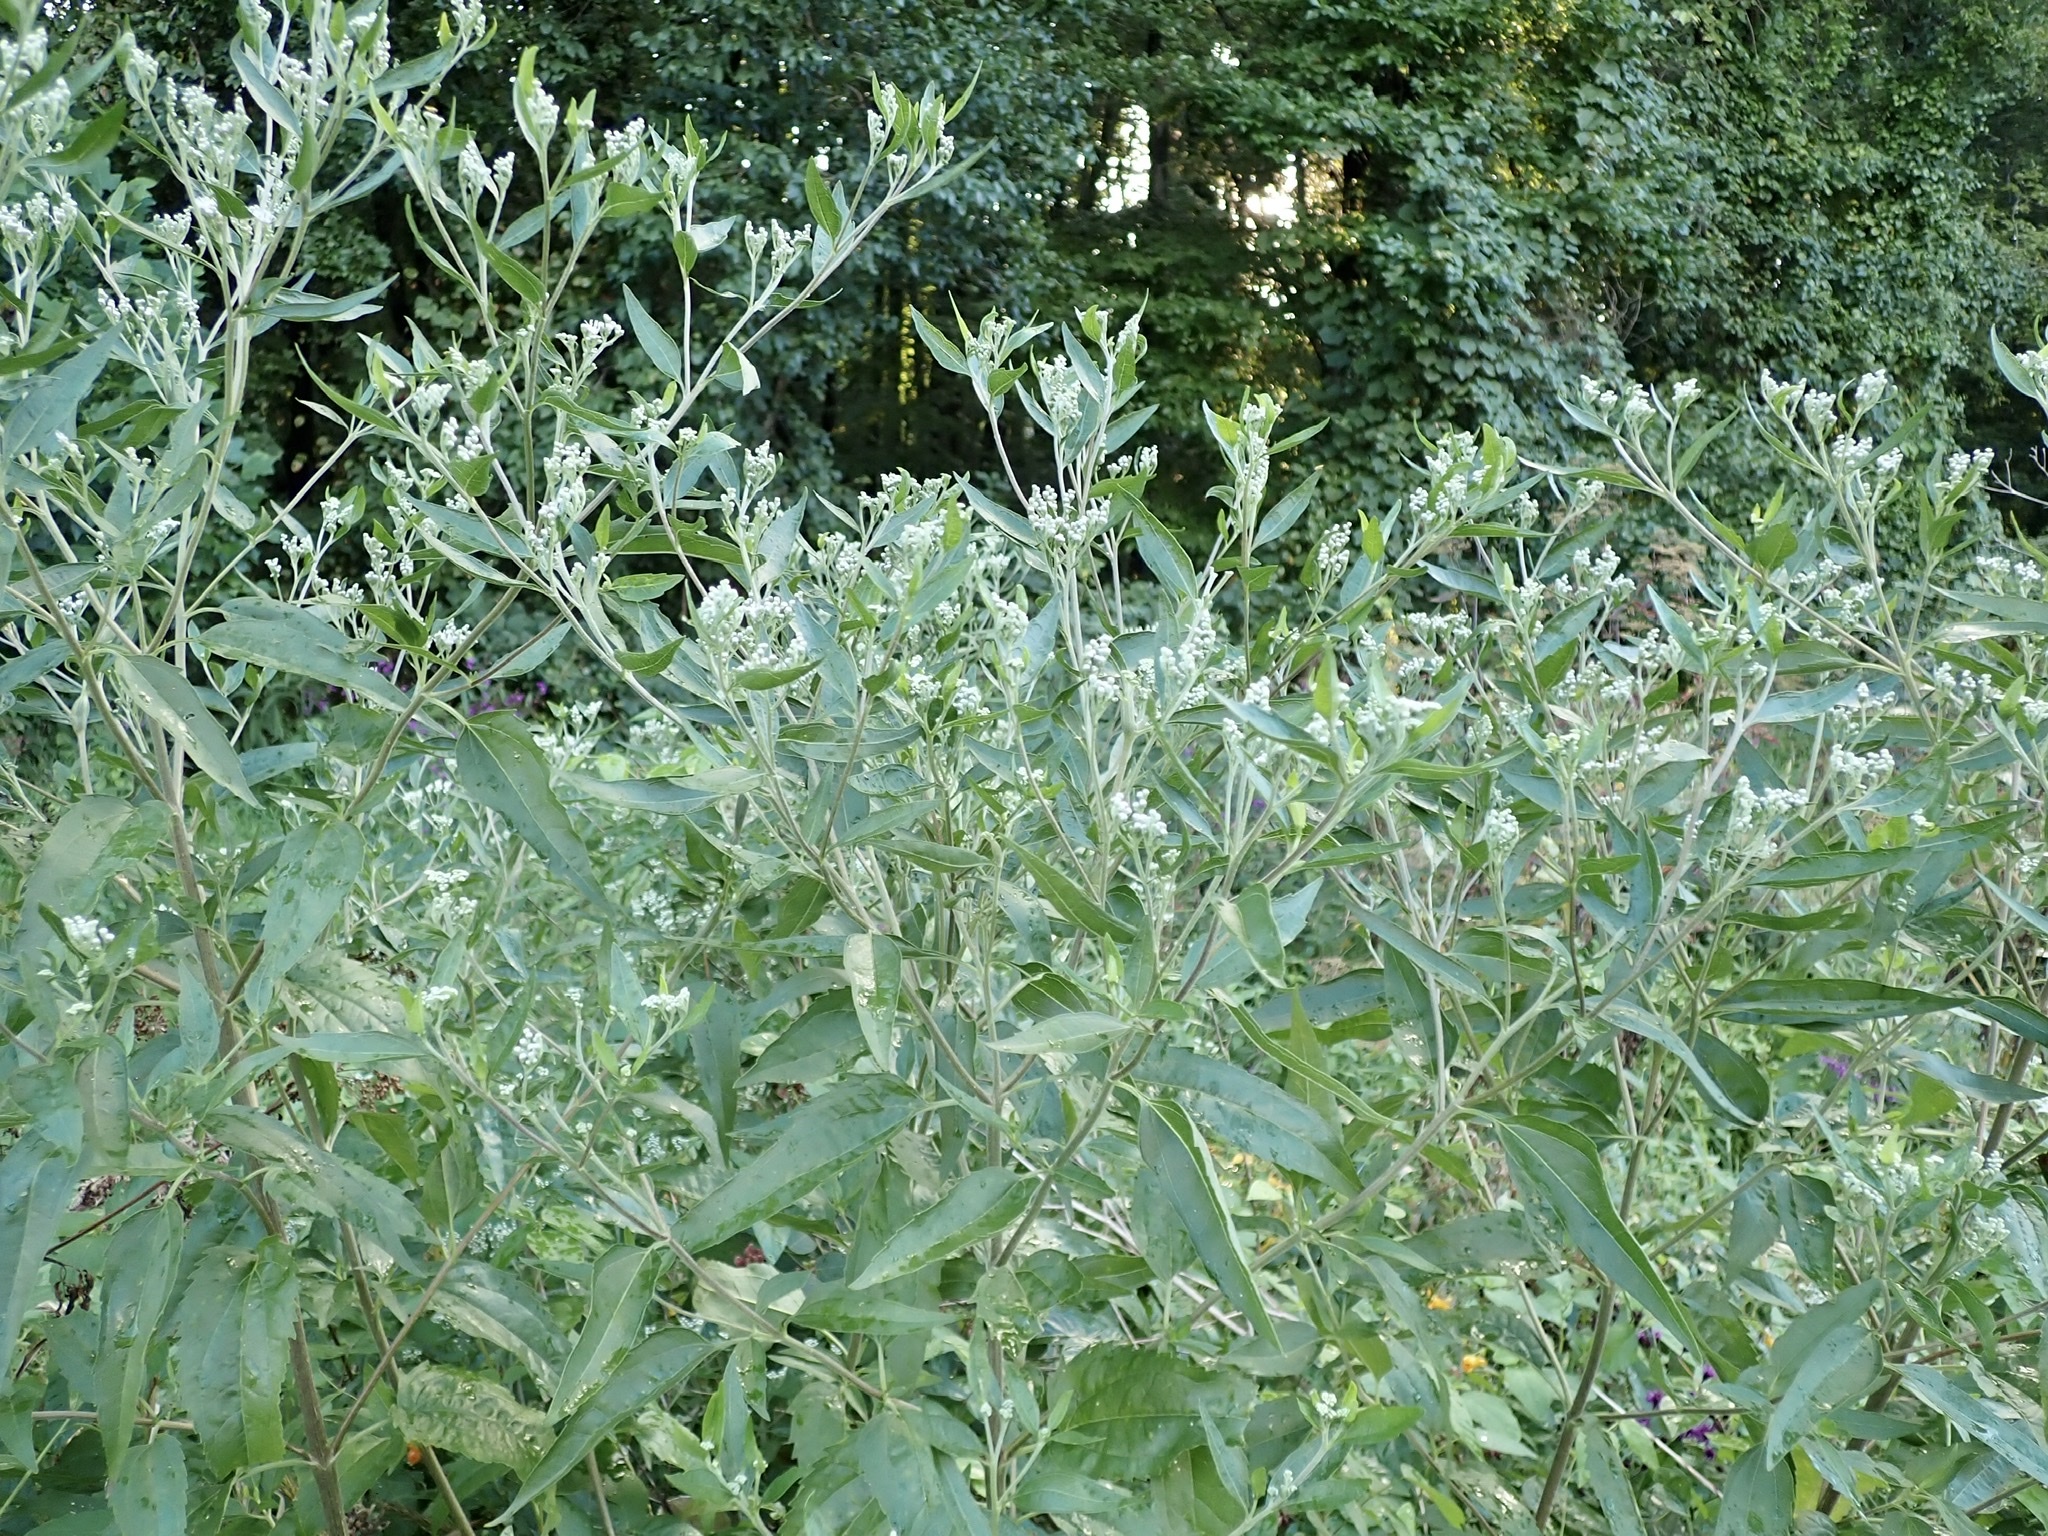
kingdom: Plantae
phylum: Tracheophyta
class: Magnoliopsida
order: Asterales
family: Asteraceae
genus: Eupatorium
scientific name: Eupatorium serotinum
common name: Late boneset
